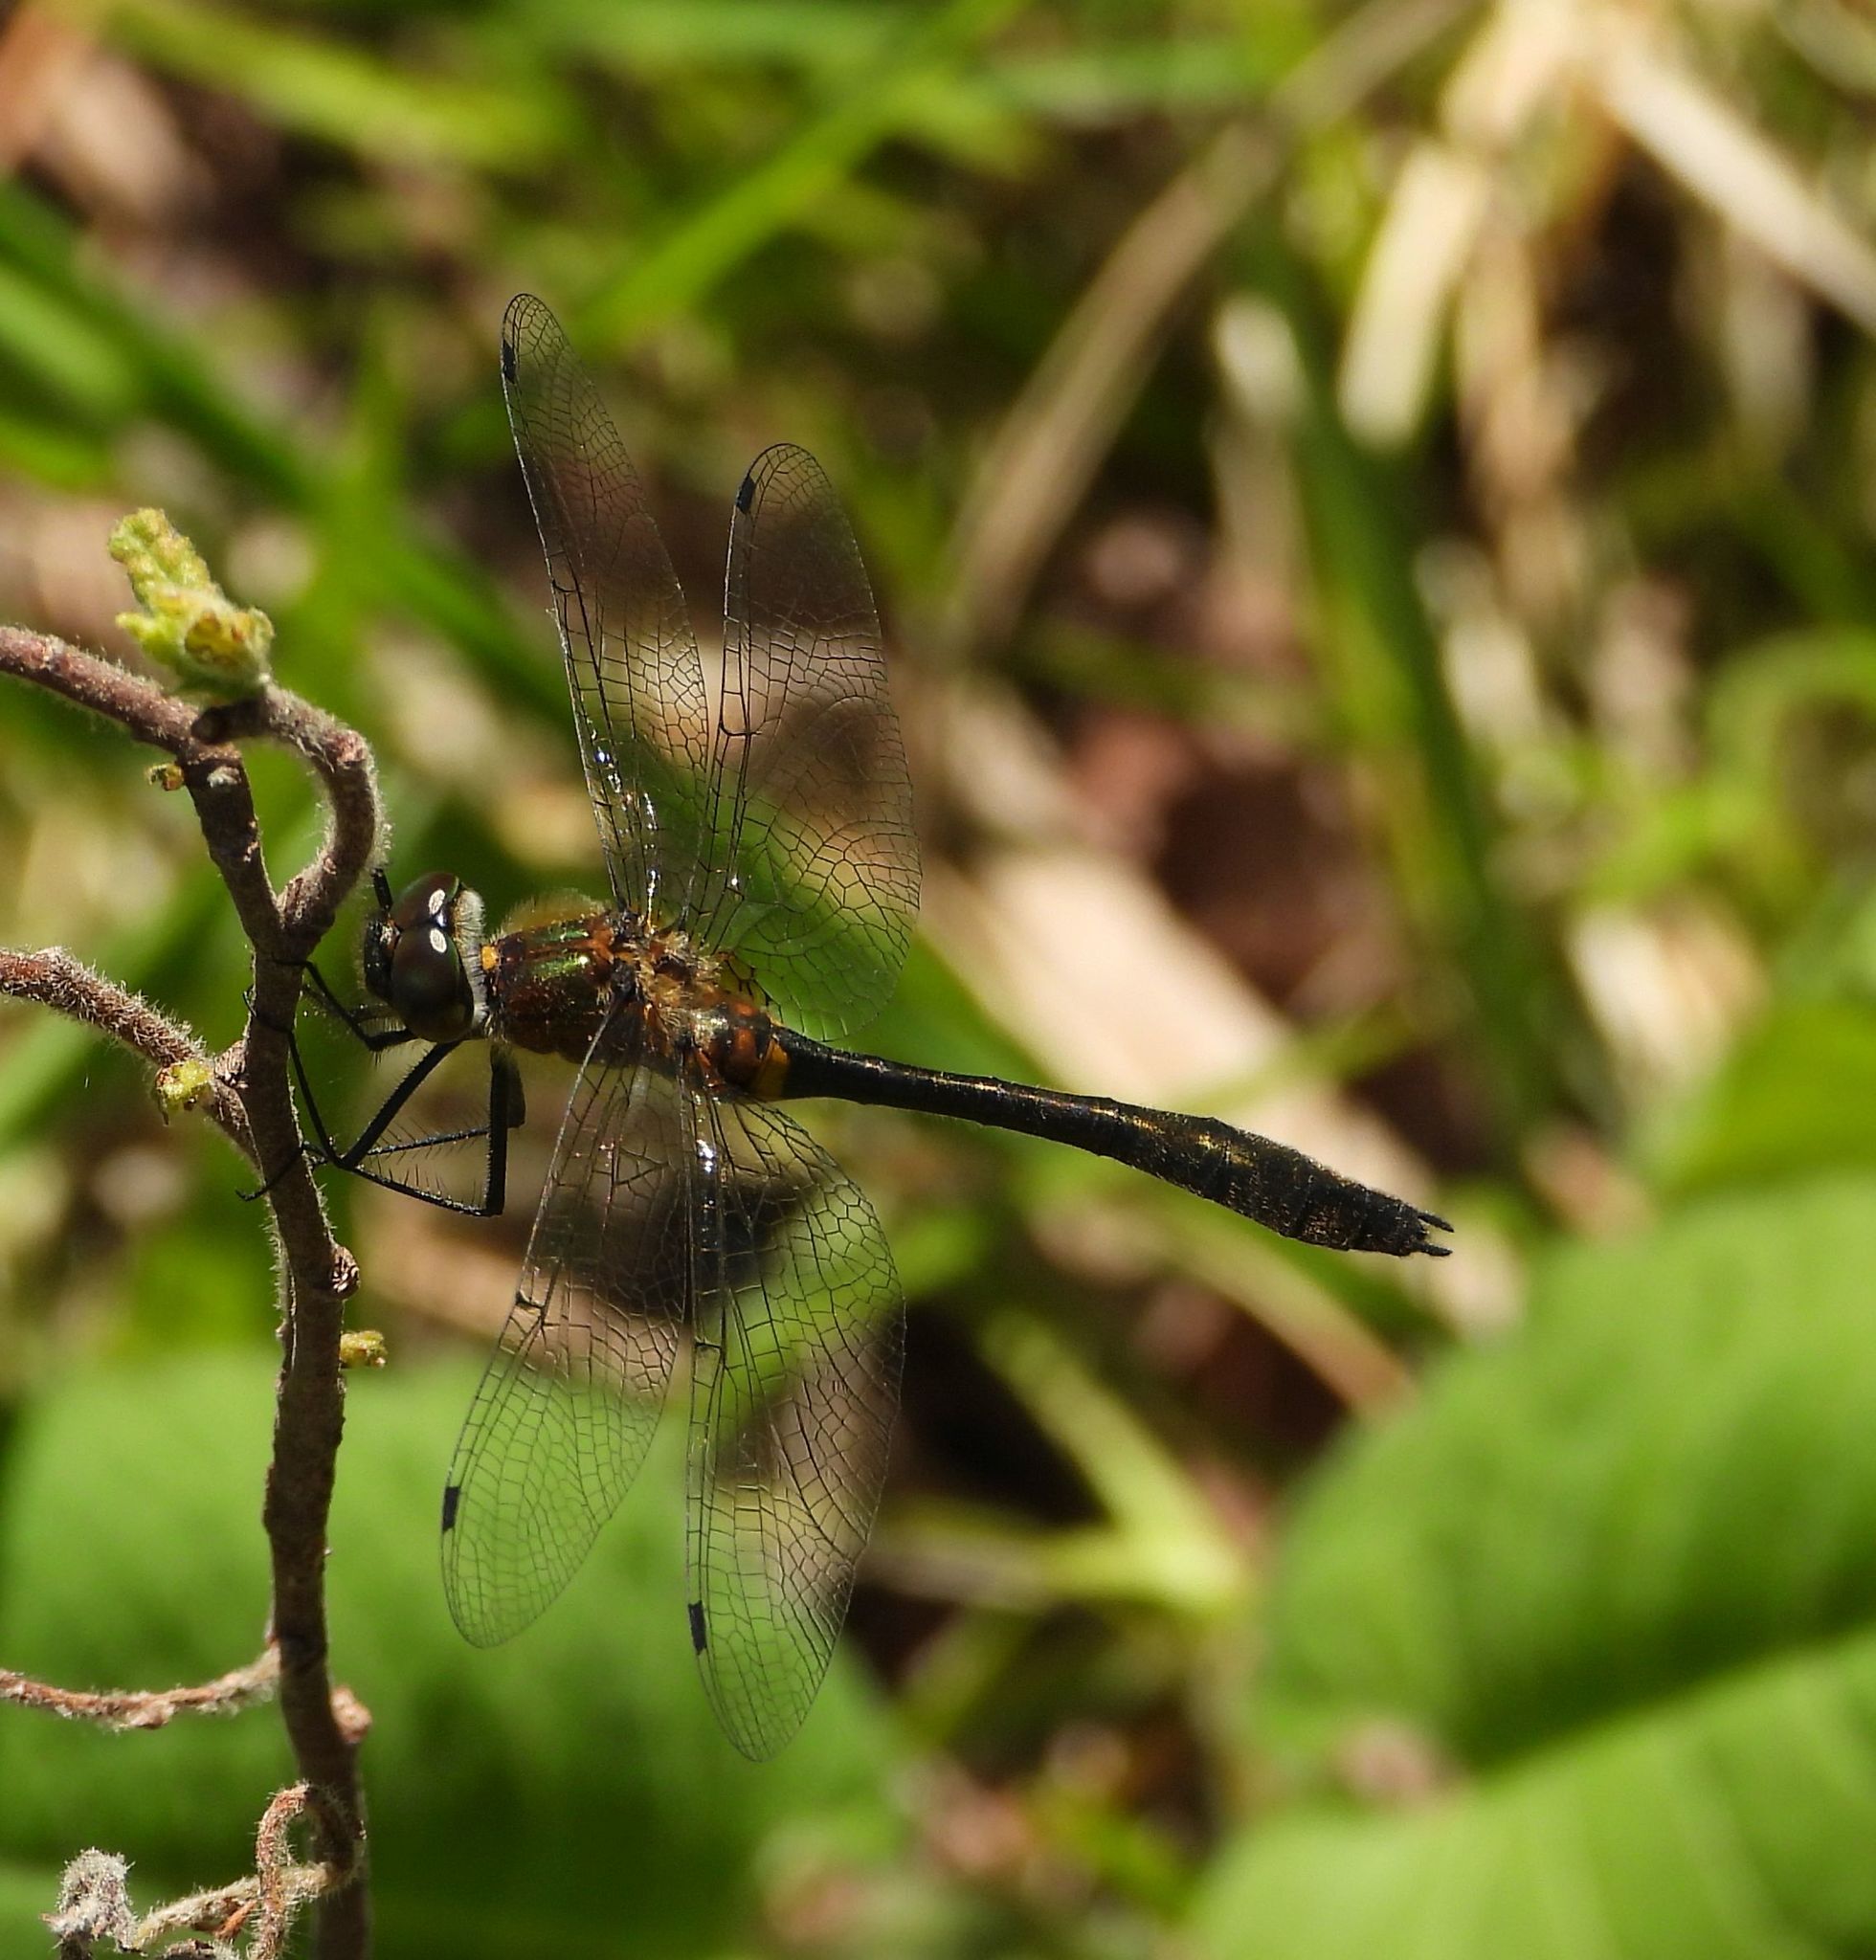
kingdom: Animalia
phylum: Arthropoda
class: Insecta
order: Odonata
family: Corduliidae
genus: Dorocordulia
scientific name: Dorocordulia libera
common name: Racket-tailed emerald
